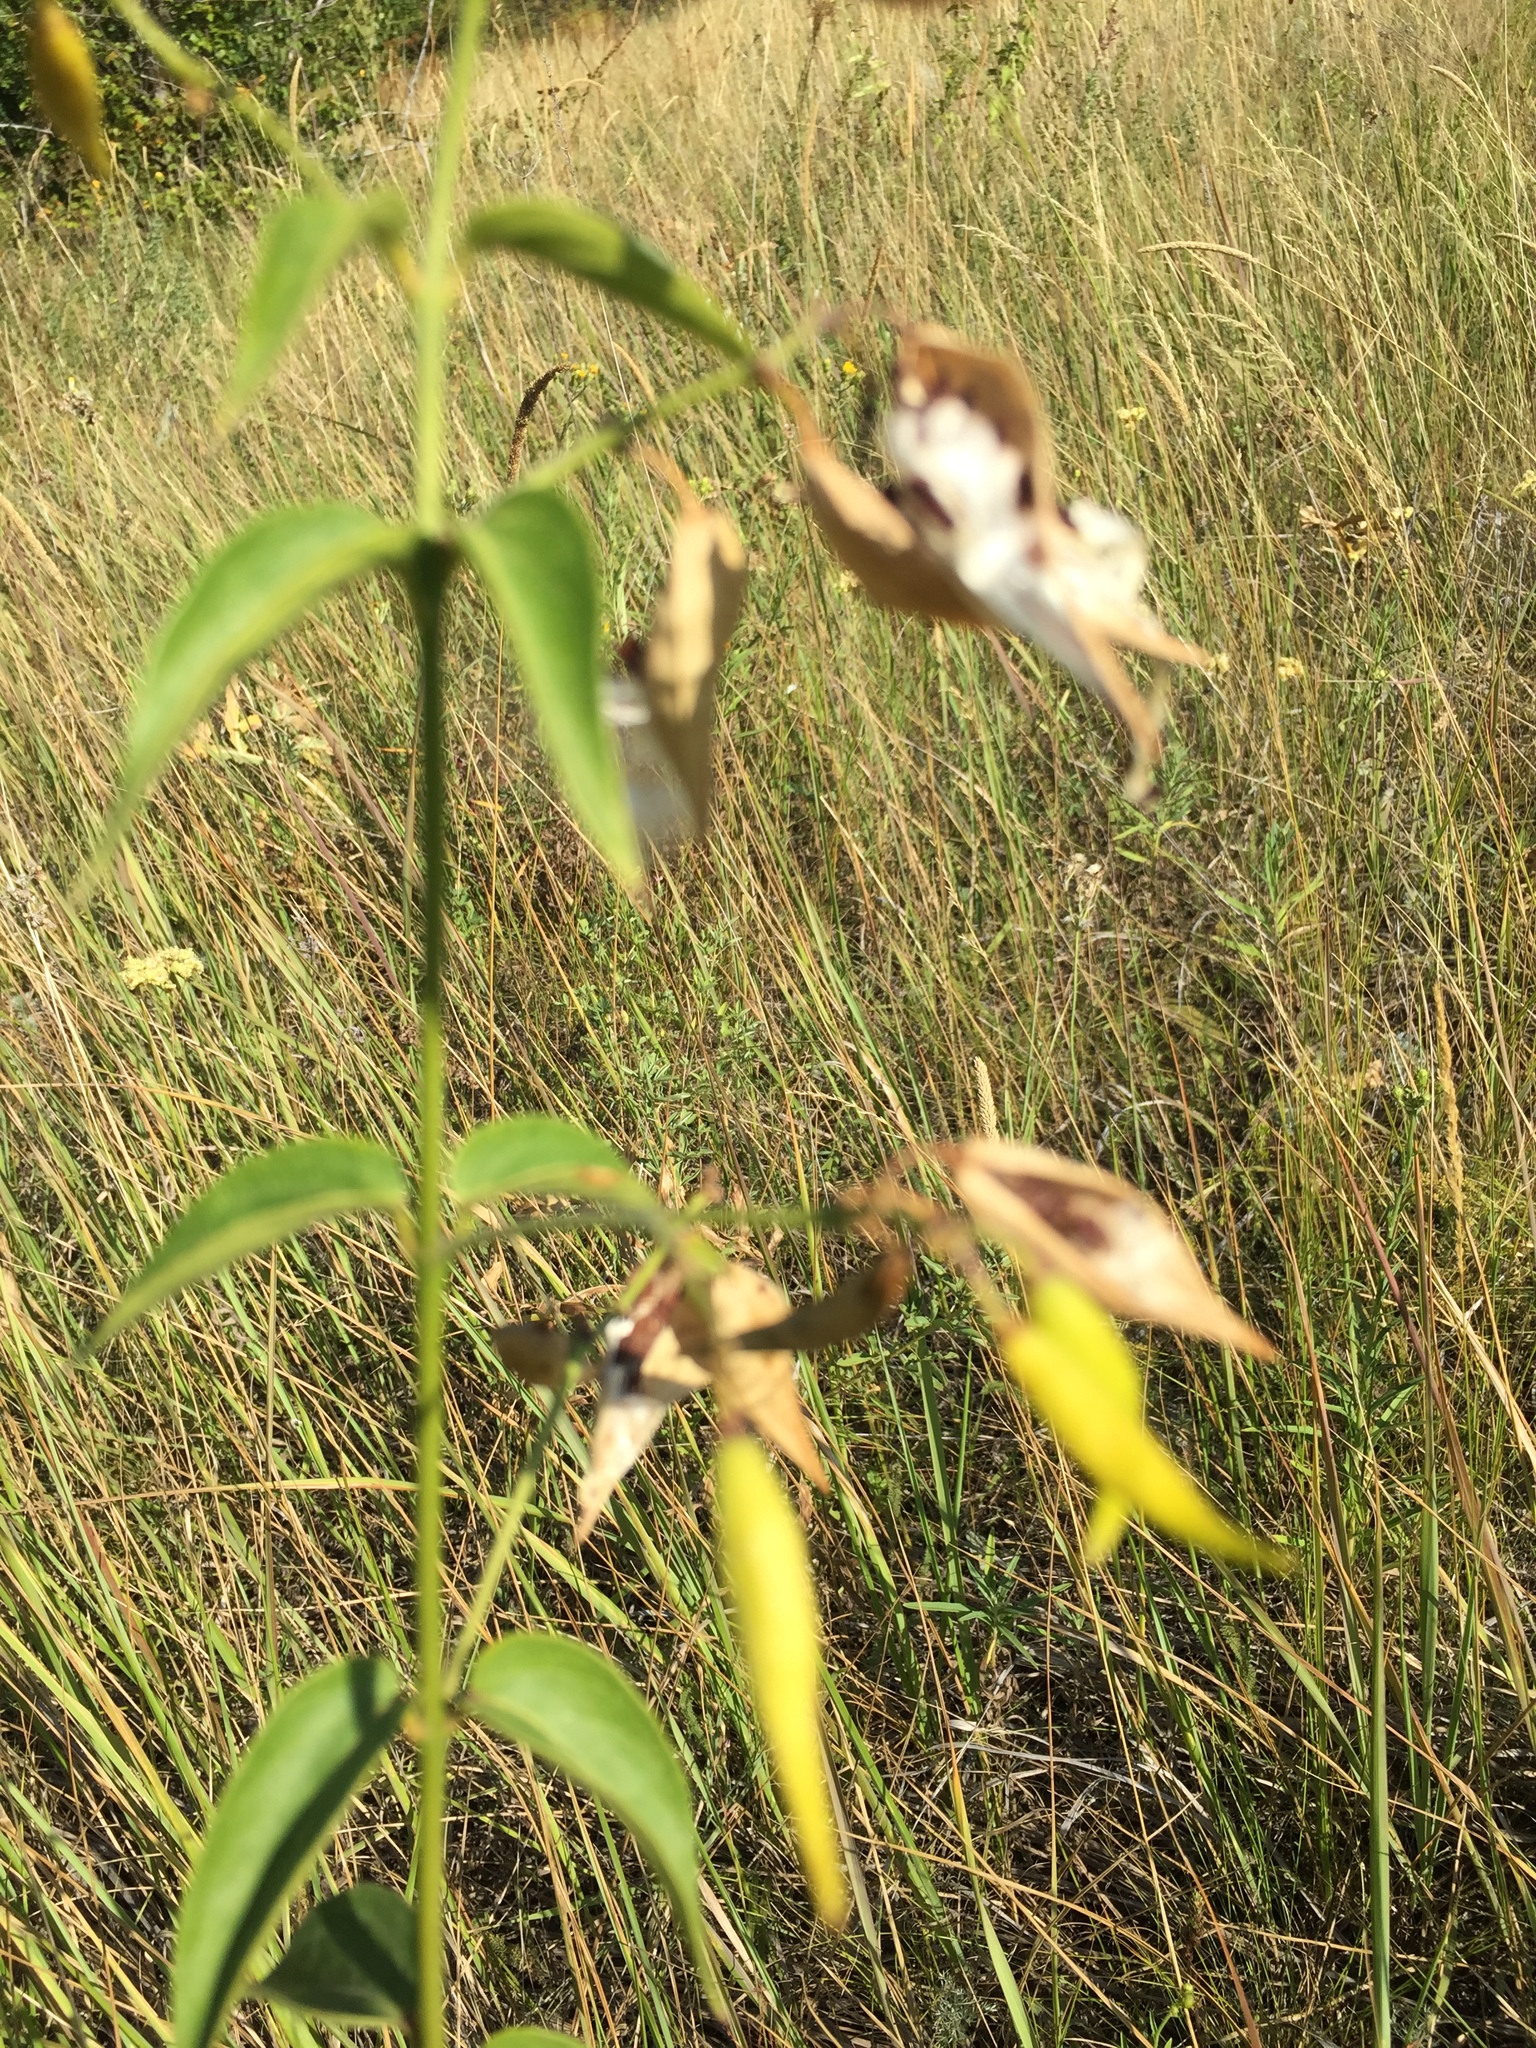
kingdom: Plantae
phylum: Tracheophyta
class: Magnoliopsida
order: Gentianales
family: Apocynaceae
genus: Vincetoxicum
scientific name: Vincetoxicum hirundinaria
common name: White swallowwort
